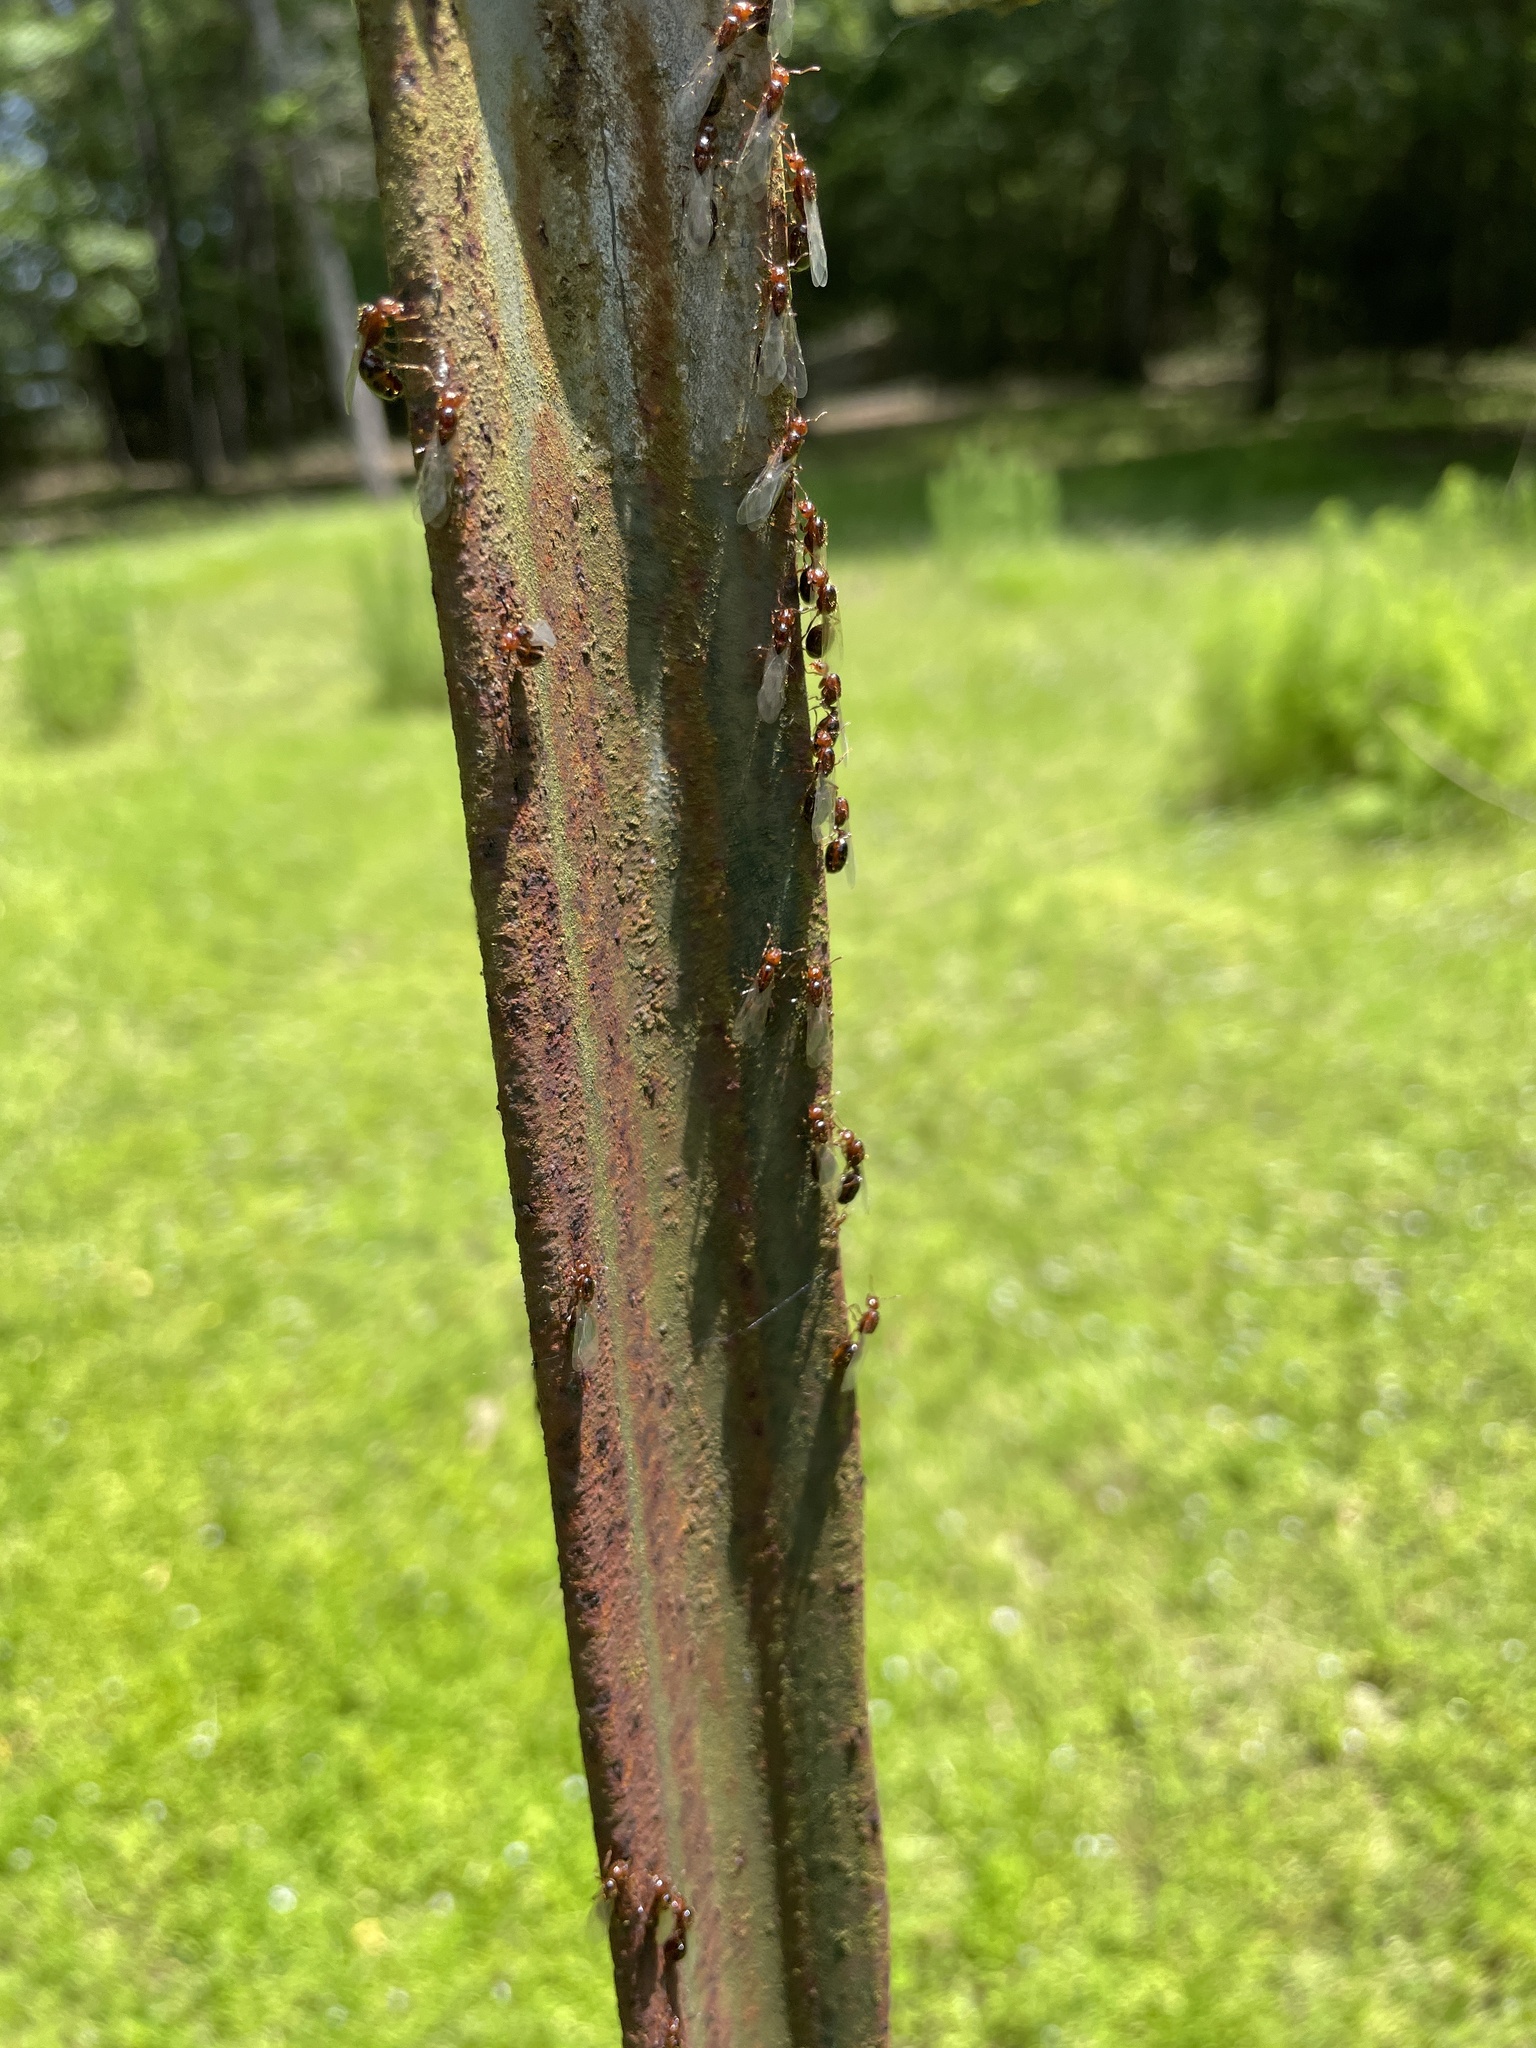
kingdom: Animalia
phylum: Arthropoda
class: Insecta
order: Hymenoptera
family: Formicidae
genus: Solenopsis
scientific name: Solenopsis invicta
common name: Red imported fire ant
